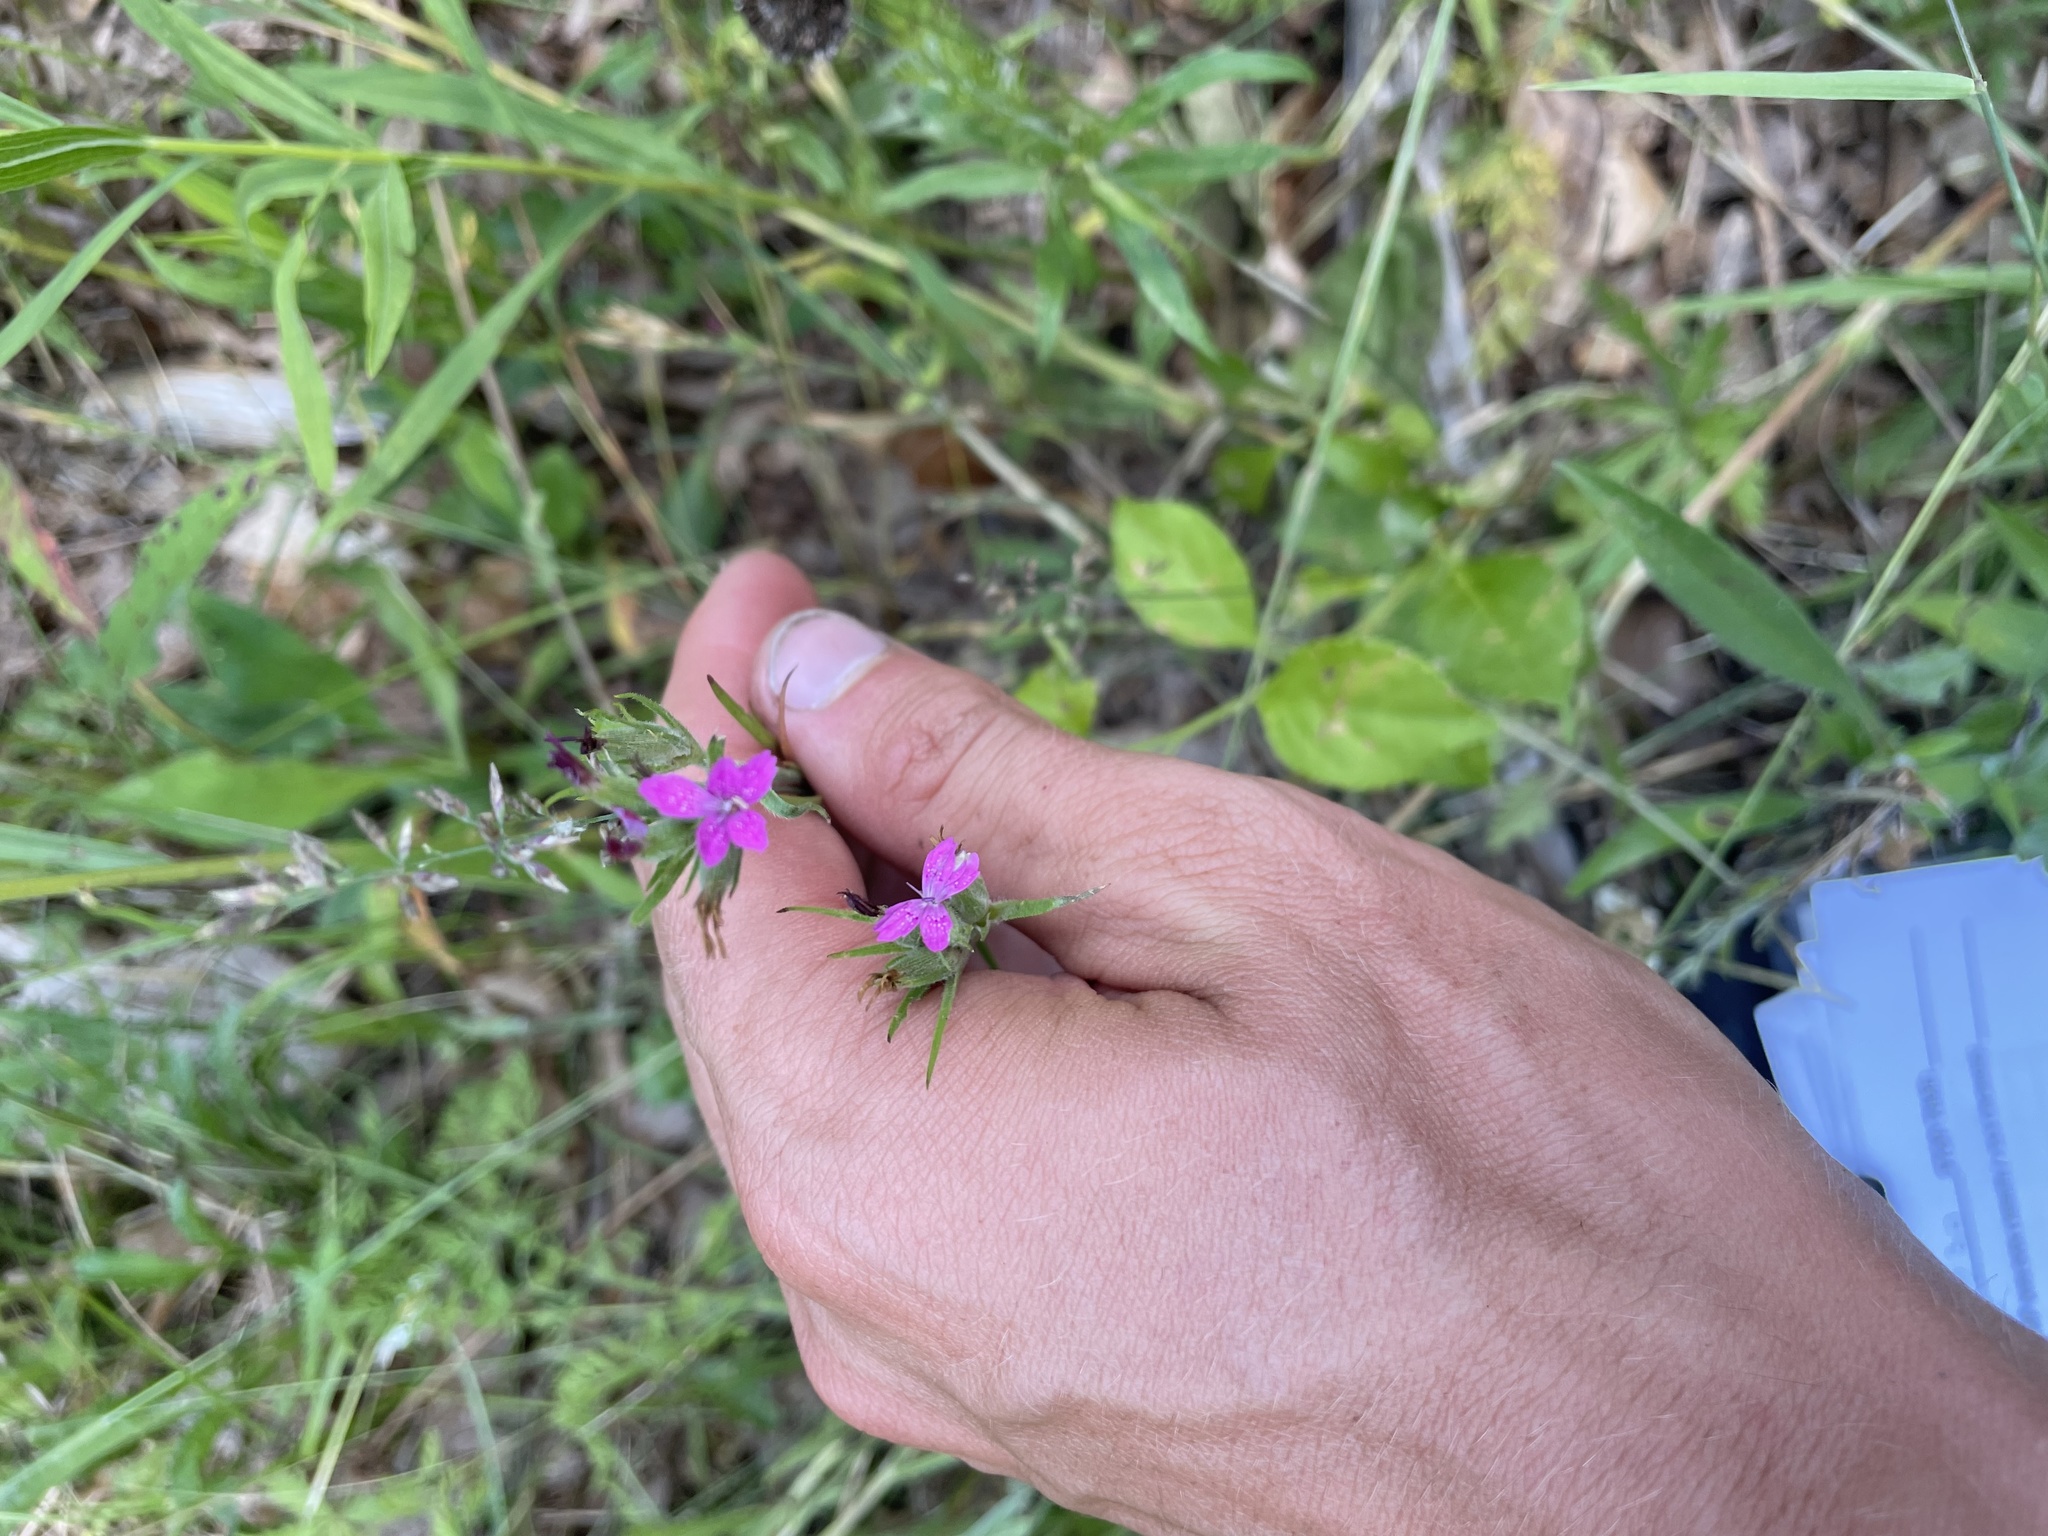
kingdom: Plantae
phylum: Tracheophyta
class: Magnoliopsida
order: Caryophyllales
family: Caryophyllaceae
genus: Dianthus
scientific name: Dianthus armeria
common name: Deptford pink
